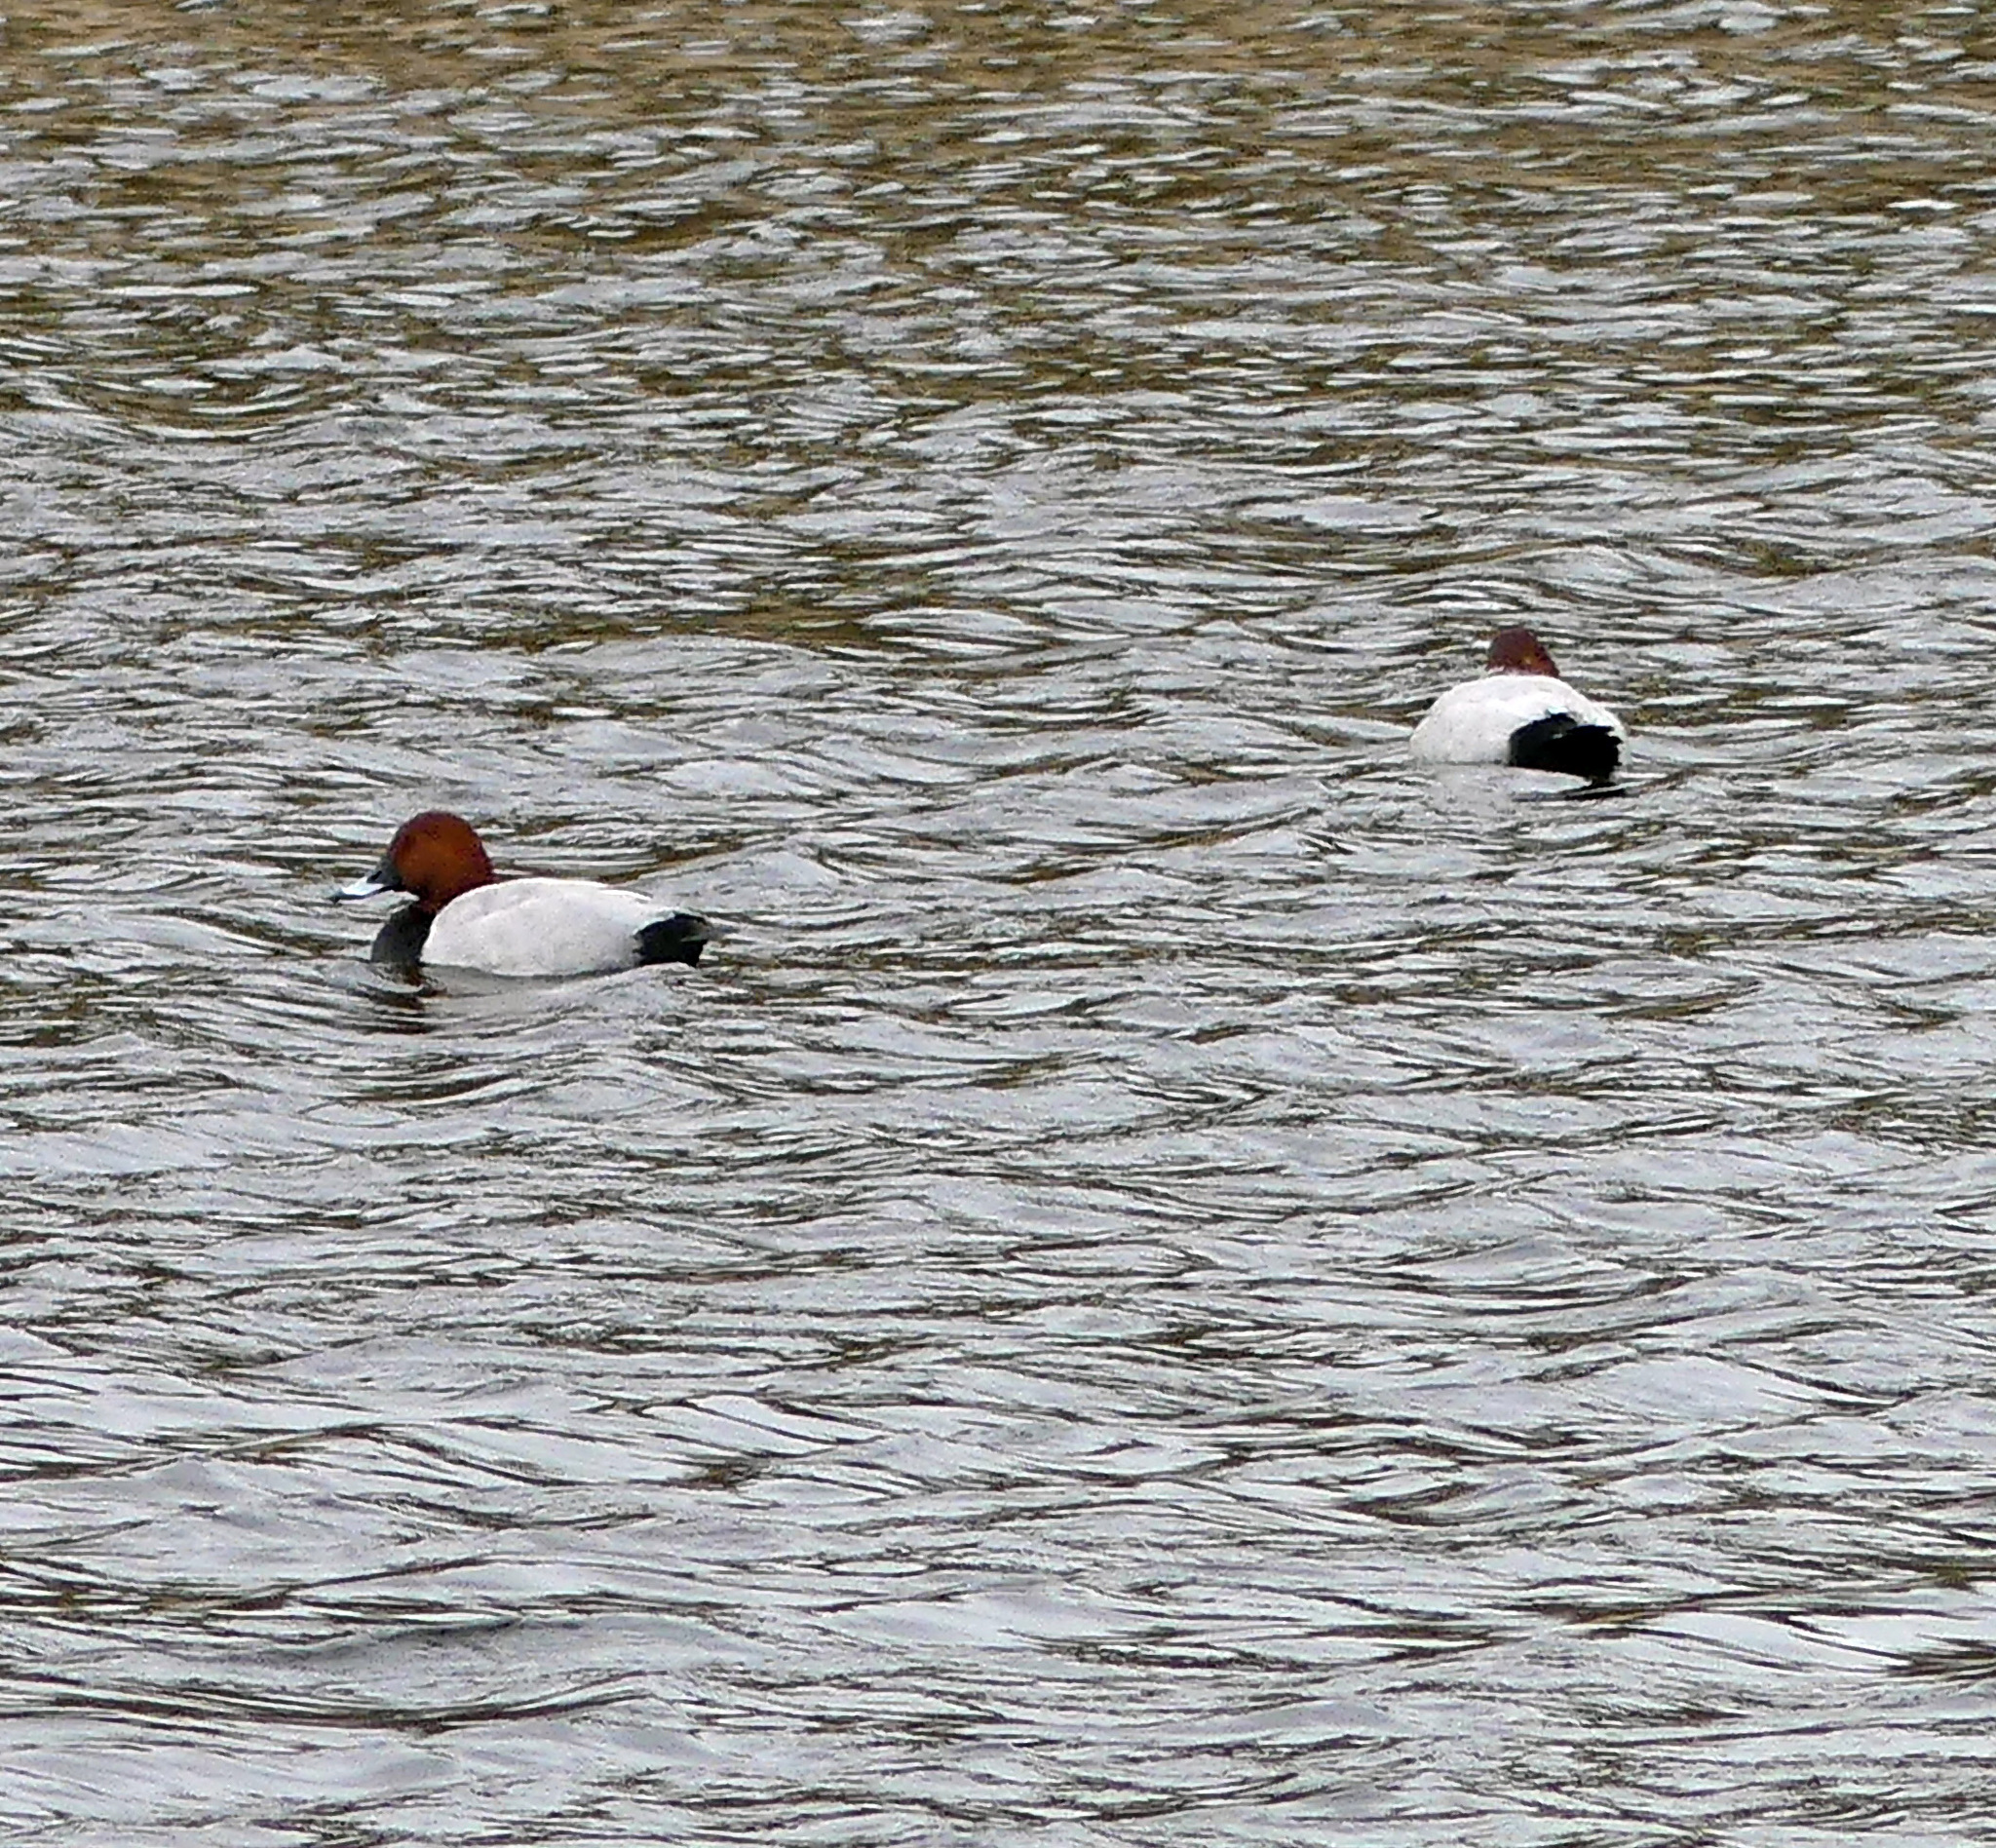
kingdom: Animalia
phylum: Chordata
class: Aves
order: Anseriformes
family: Anatidae
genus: Aythya
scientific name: Aythya ferina
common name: Common pochard
